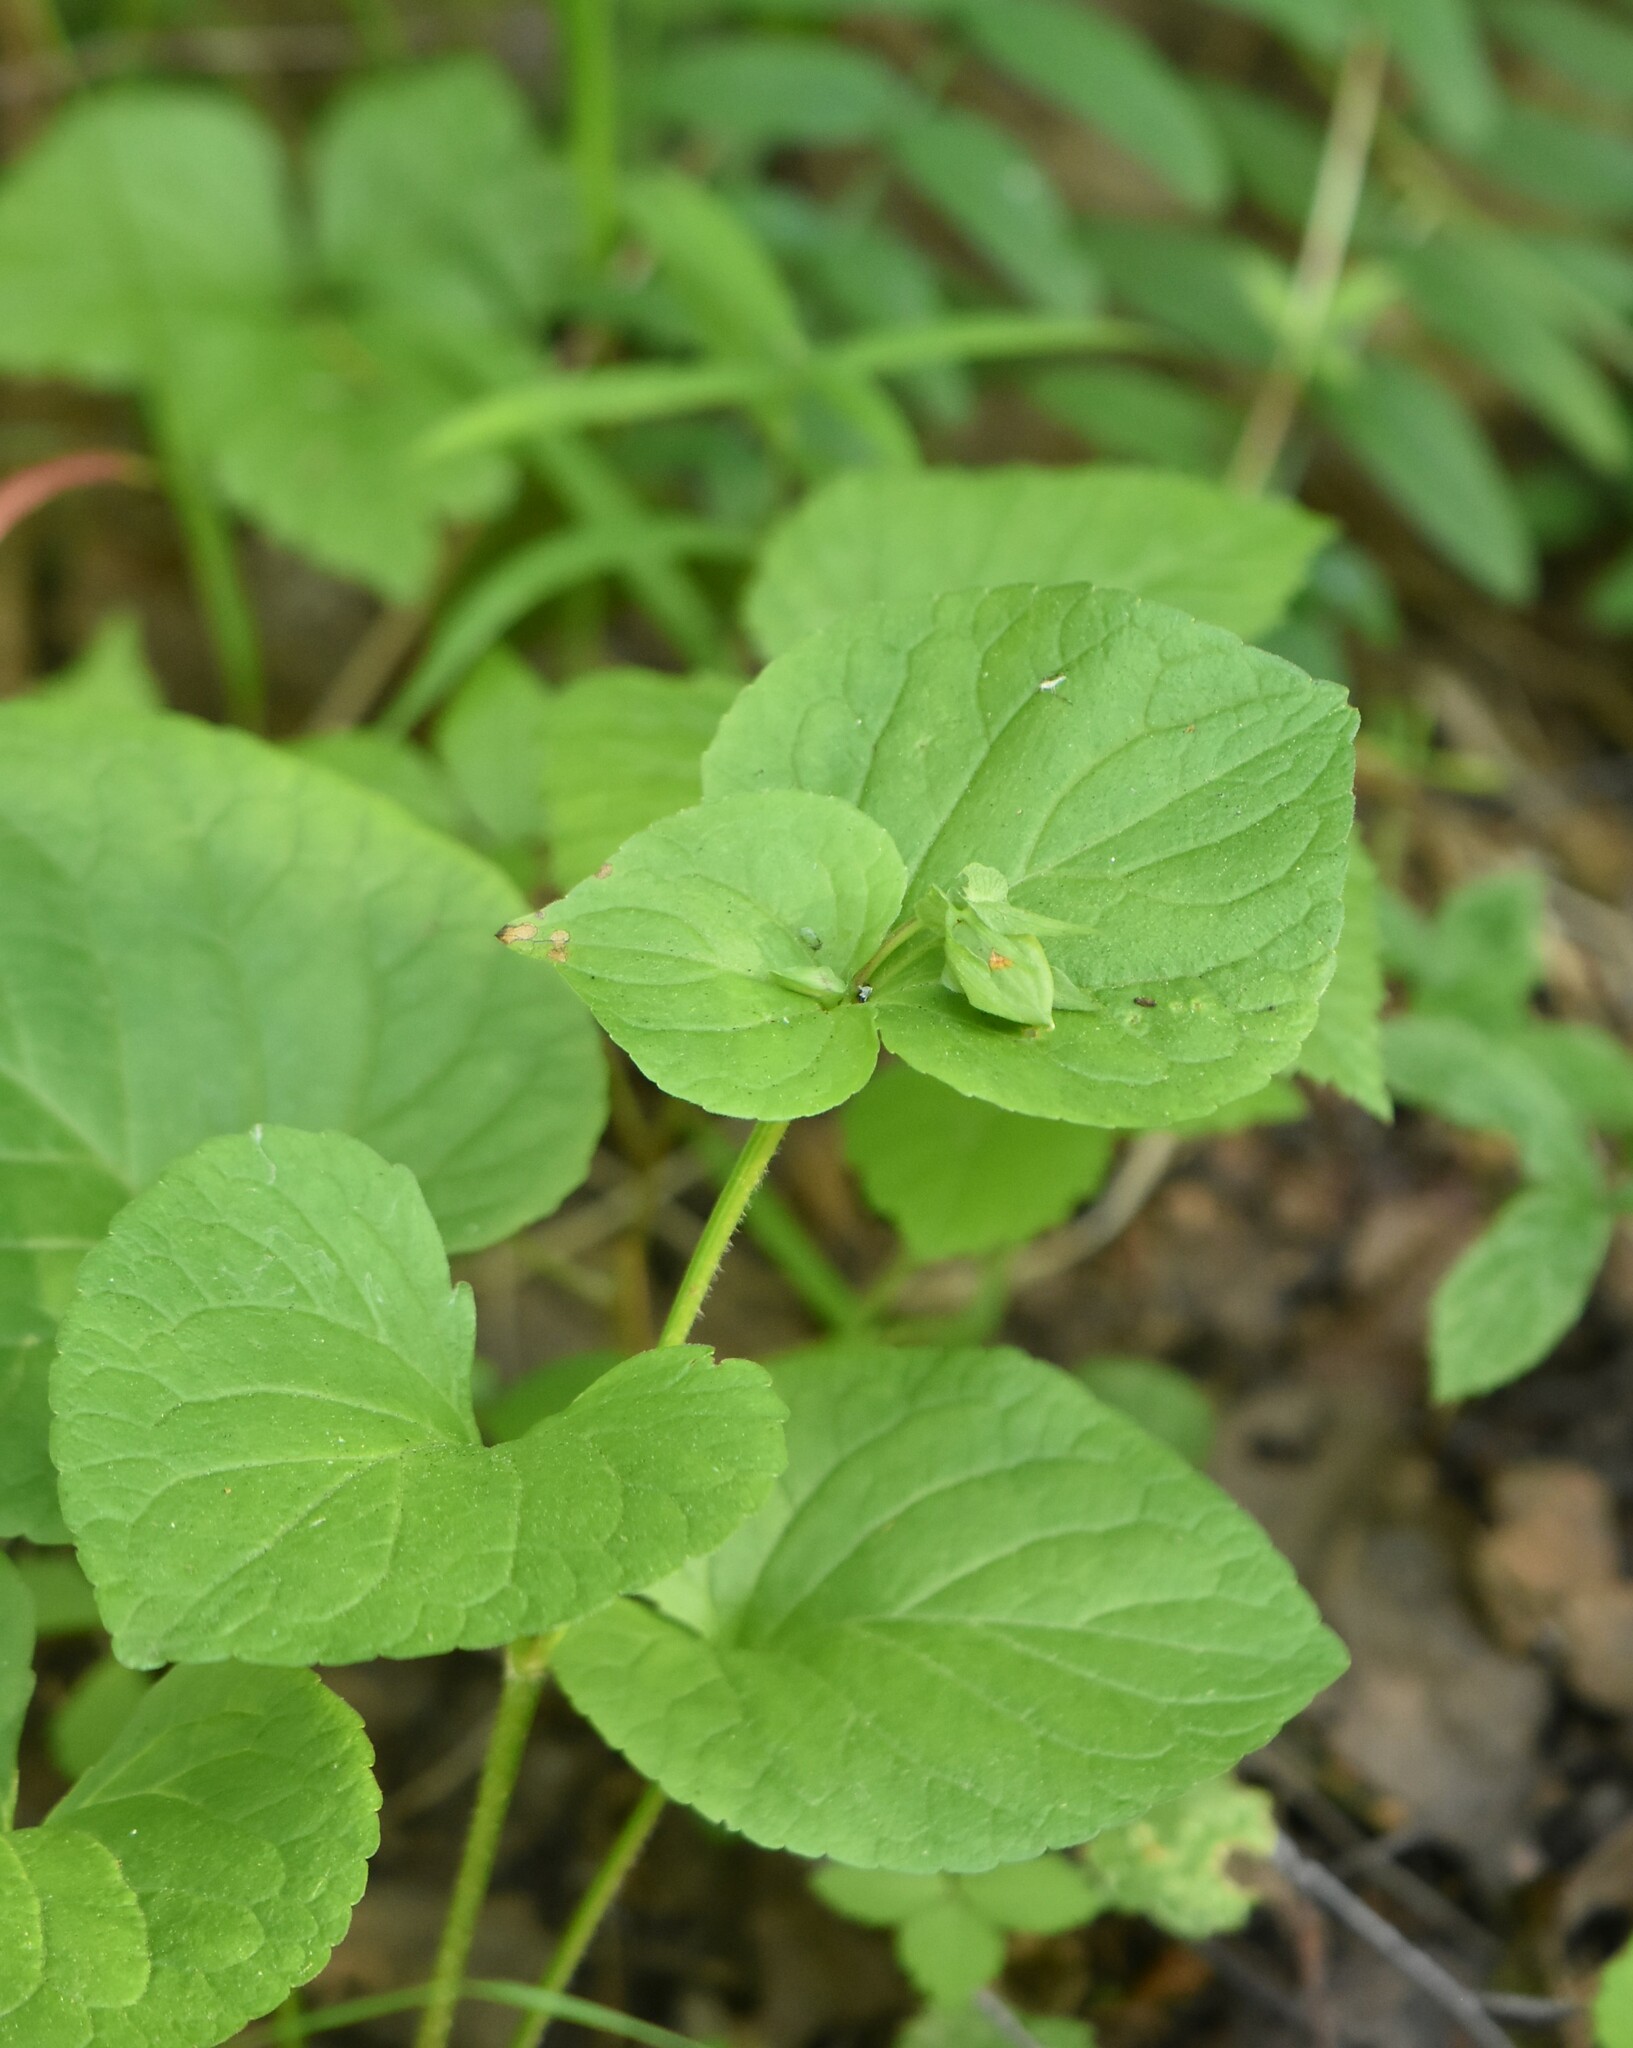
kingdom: Plantae
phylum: Tracheophyta
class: Magnoliopsida
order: Malpighiales
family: Violaceae
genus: Viola
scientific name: Viola mirabilis
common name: Wonder violet
